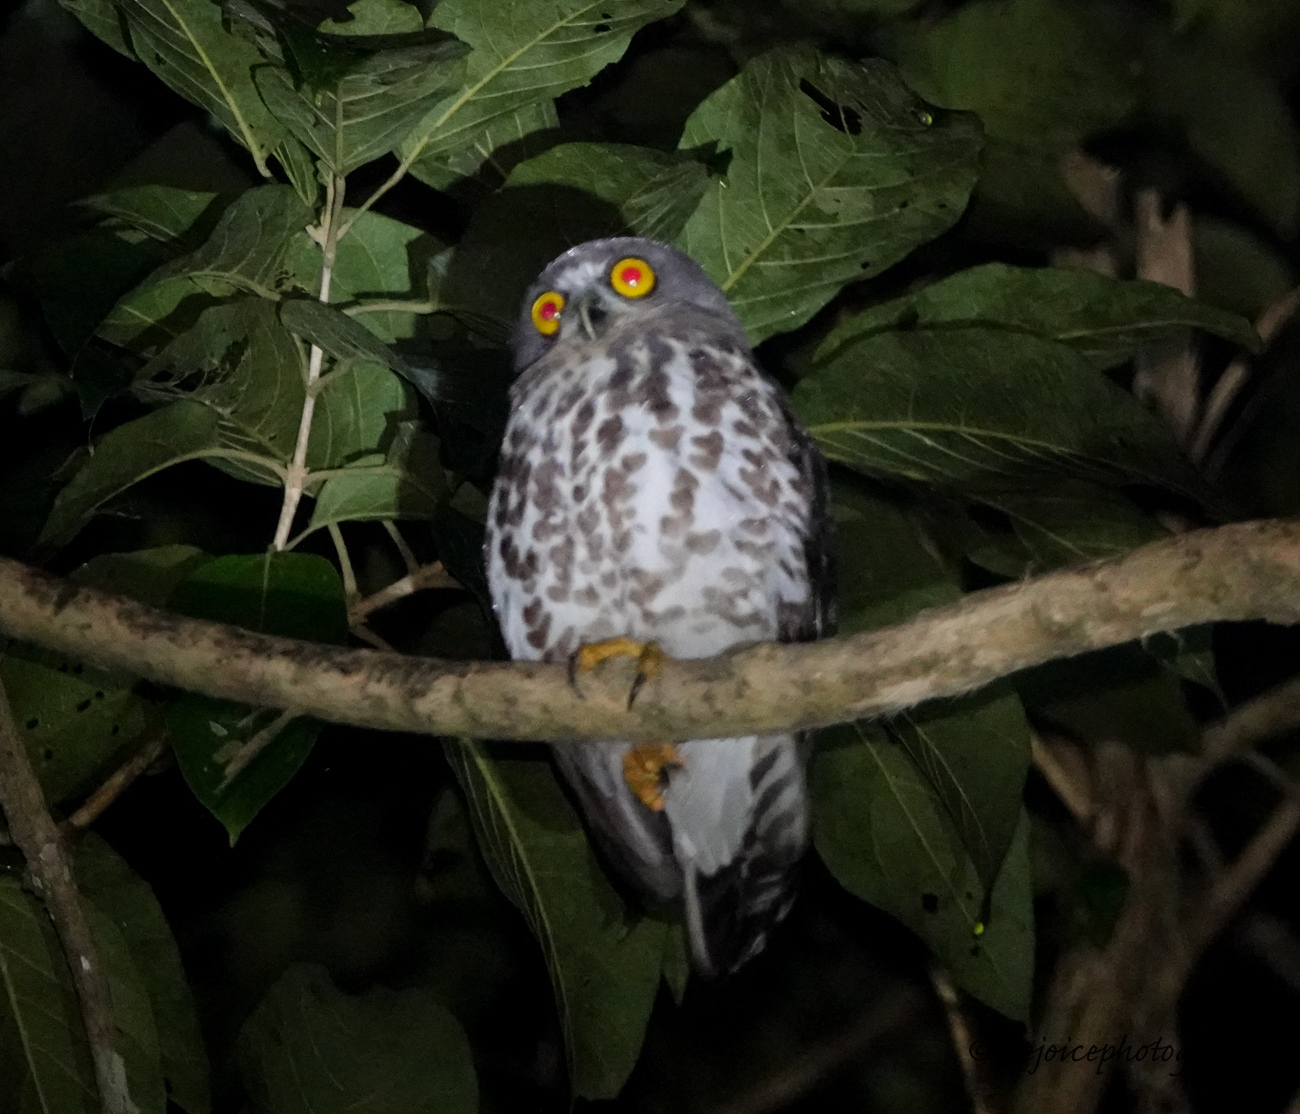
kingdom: Animalia
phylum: Chordata
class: Aves
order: Strigiformes
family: Strigidae
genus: Ninox
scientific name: Ninox scutulata
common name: Brown hawk-owl
